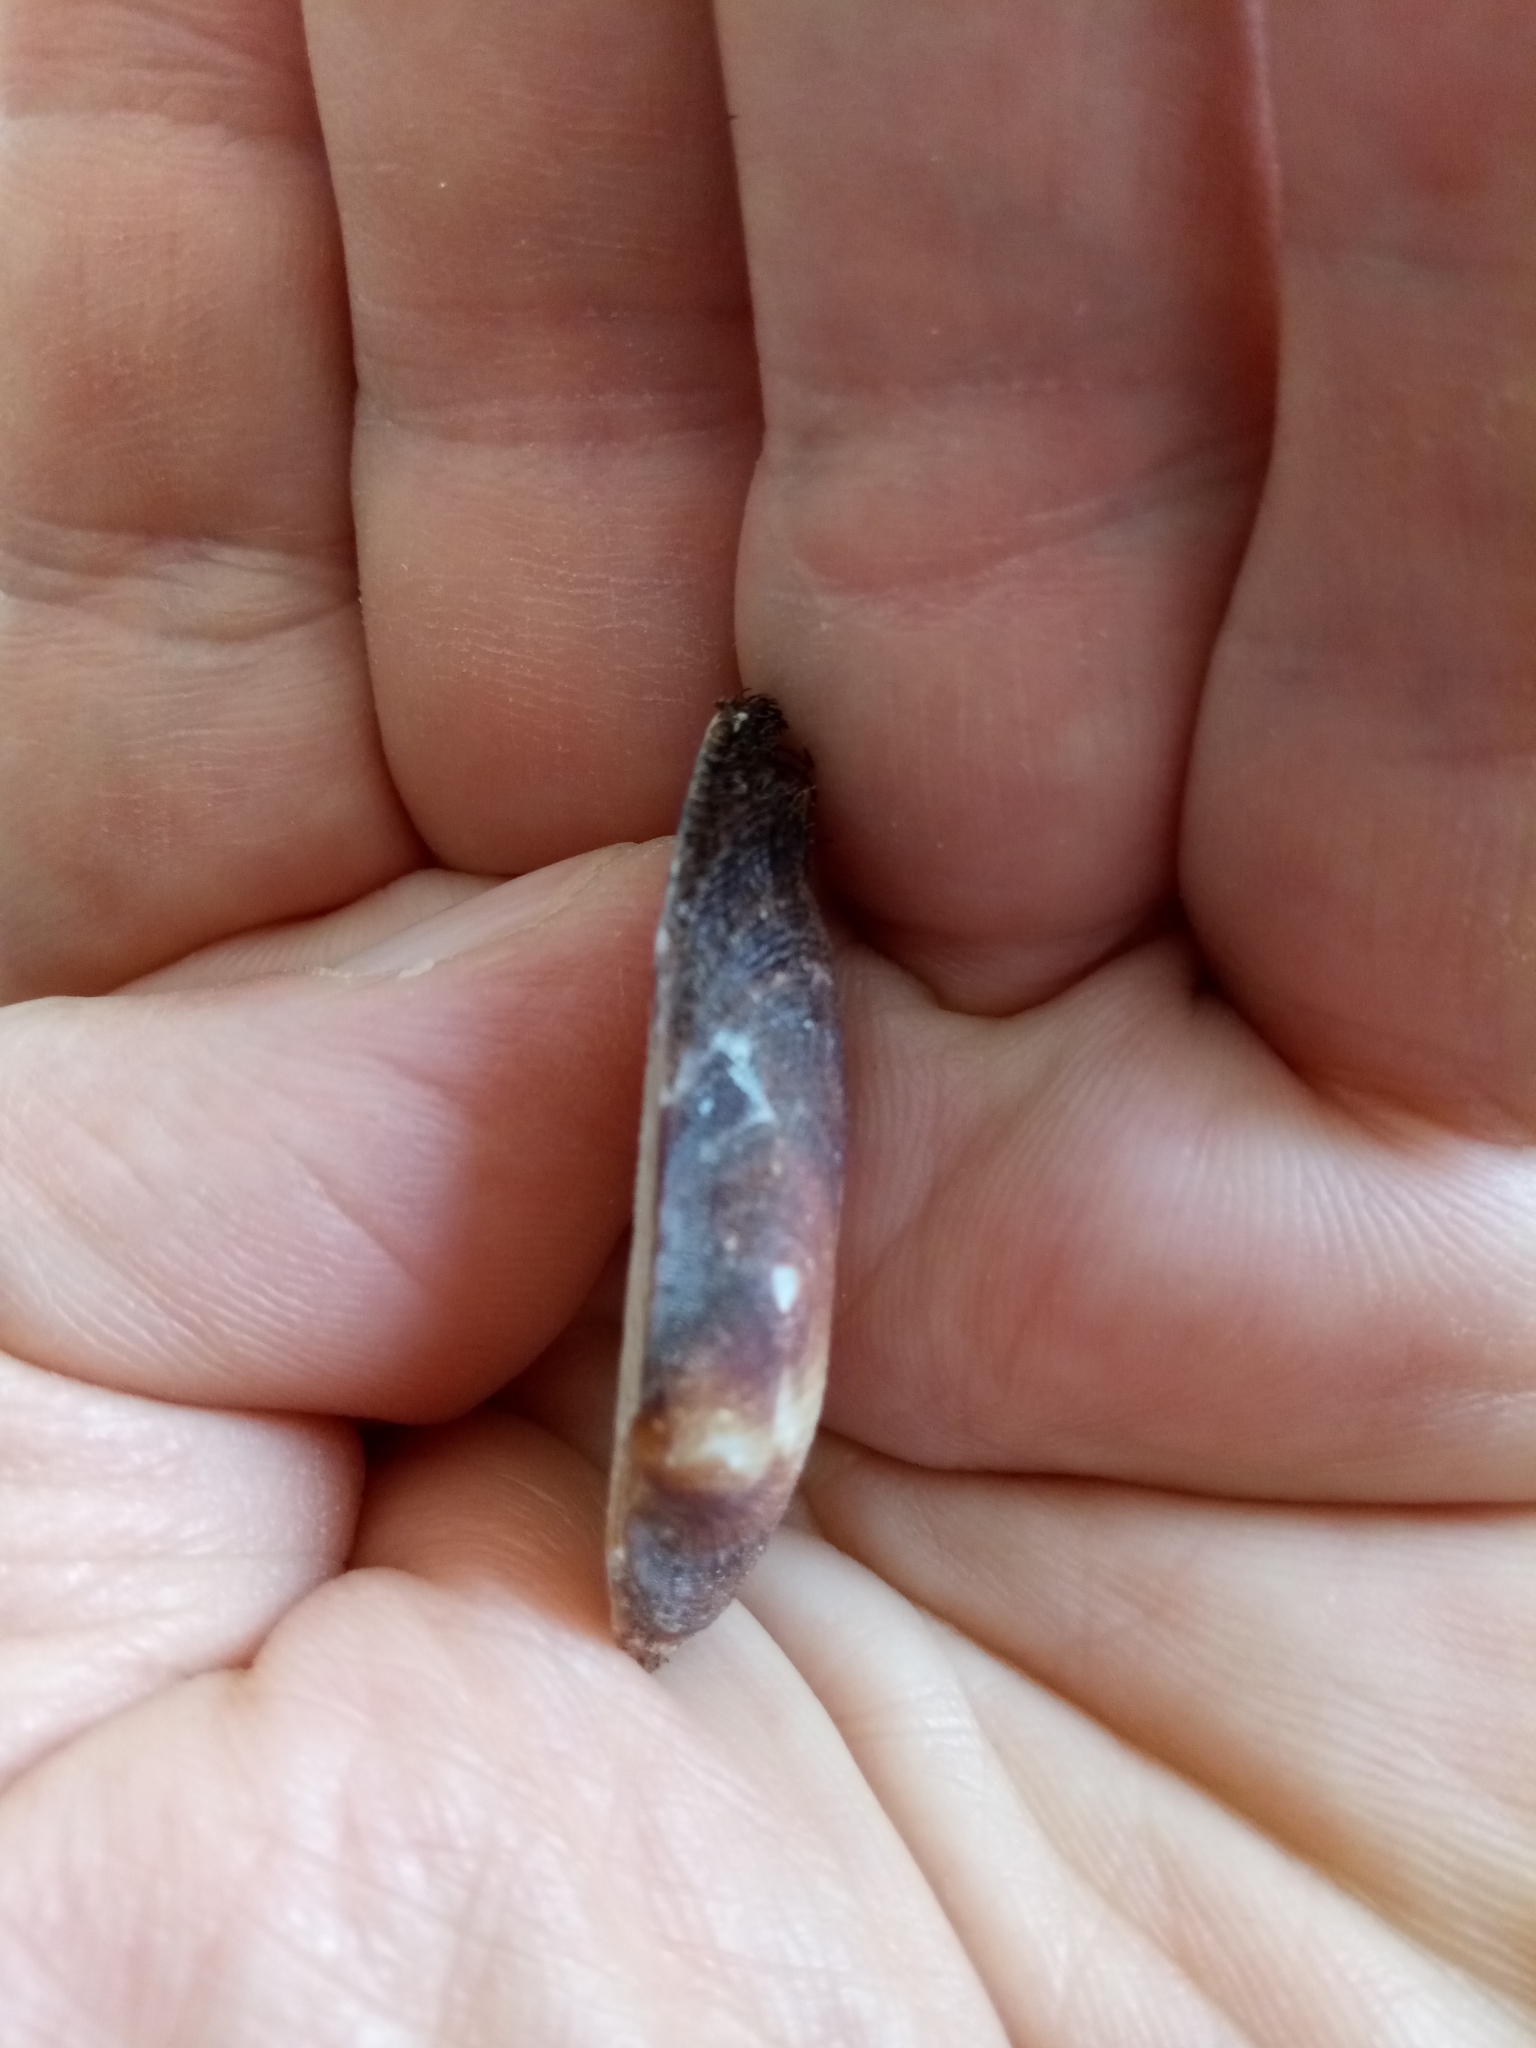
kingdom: Animalia
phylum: Mollusca
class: Bivalvia
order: Arcida
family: Arcidae
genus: Barbatia
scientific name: Barbatia barbata
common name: Bearded ark
